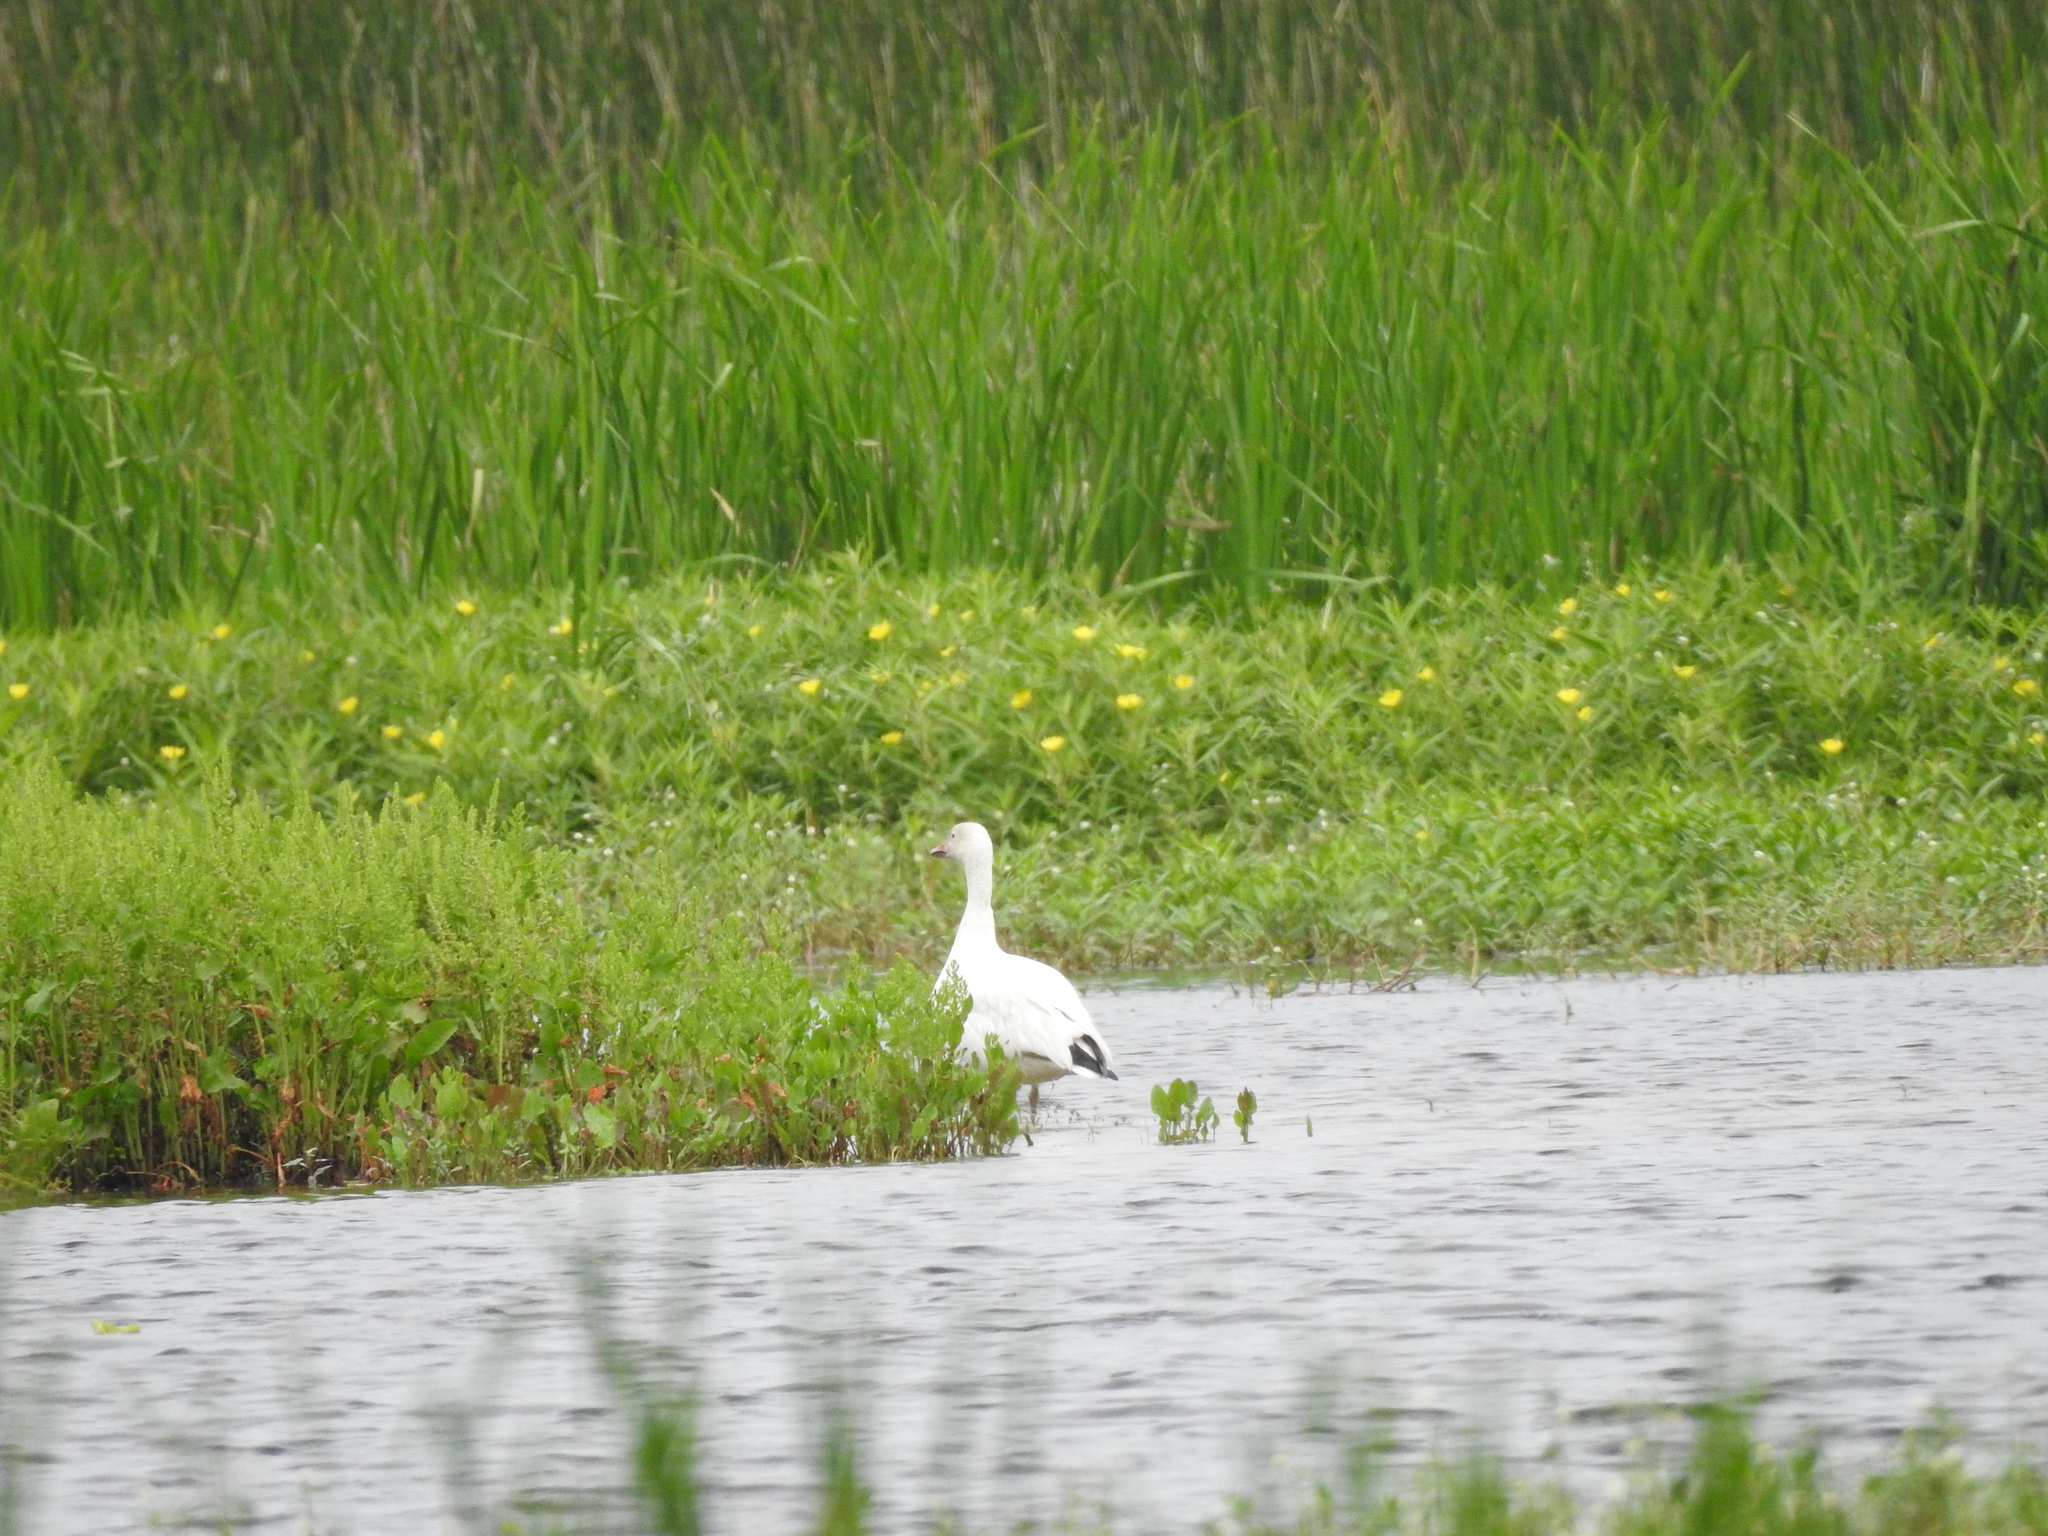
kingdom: Animalia
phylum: Chordata
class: Aves
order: Anseriformes
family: Anatidae
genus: Anser
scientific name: Anser caerulescens
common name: Snow goose
